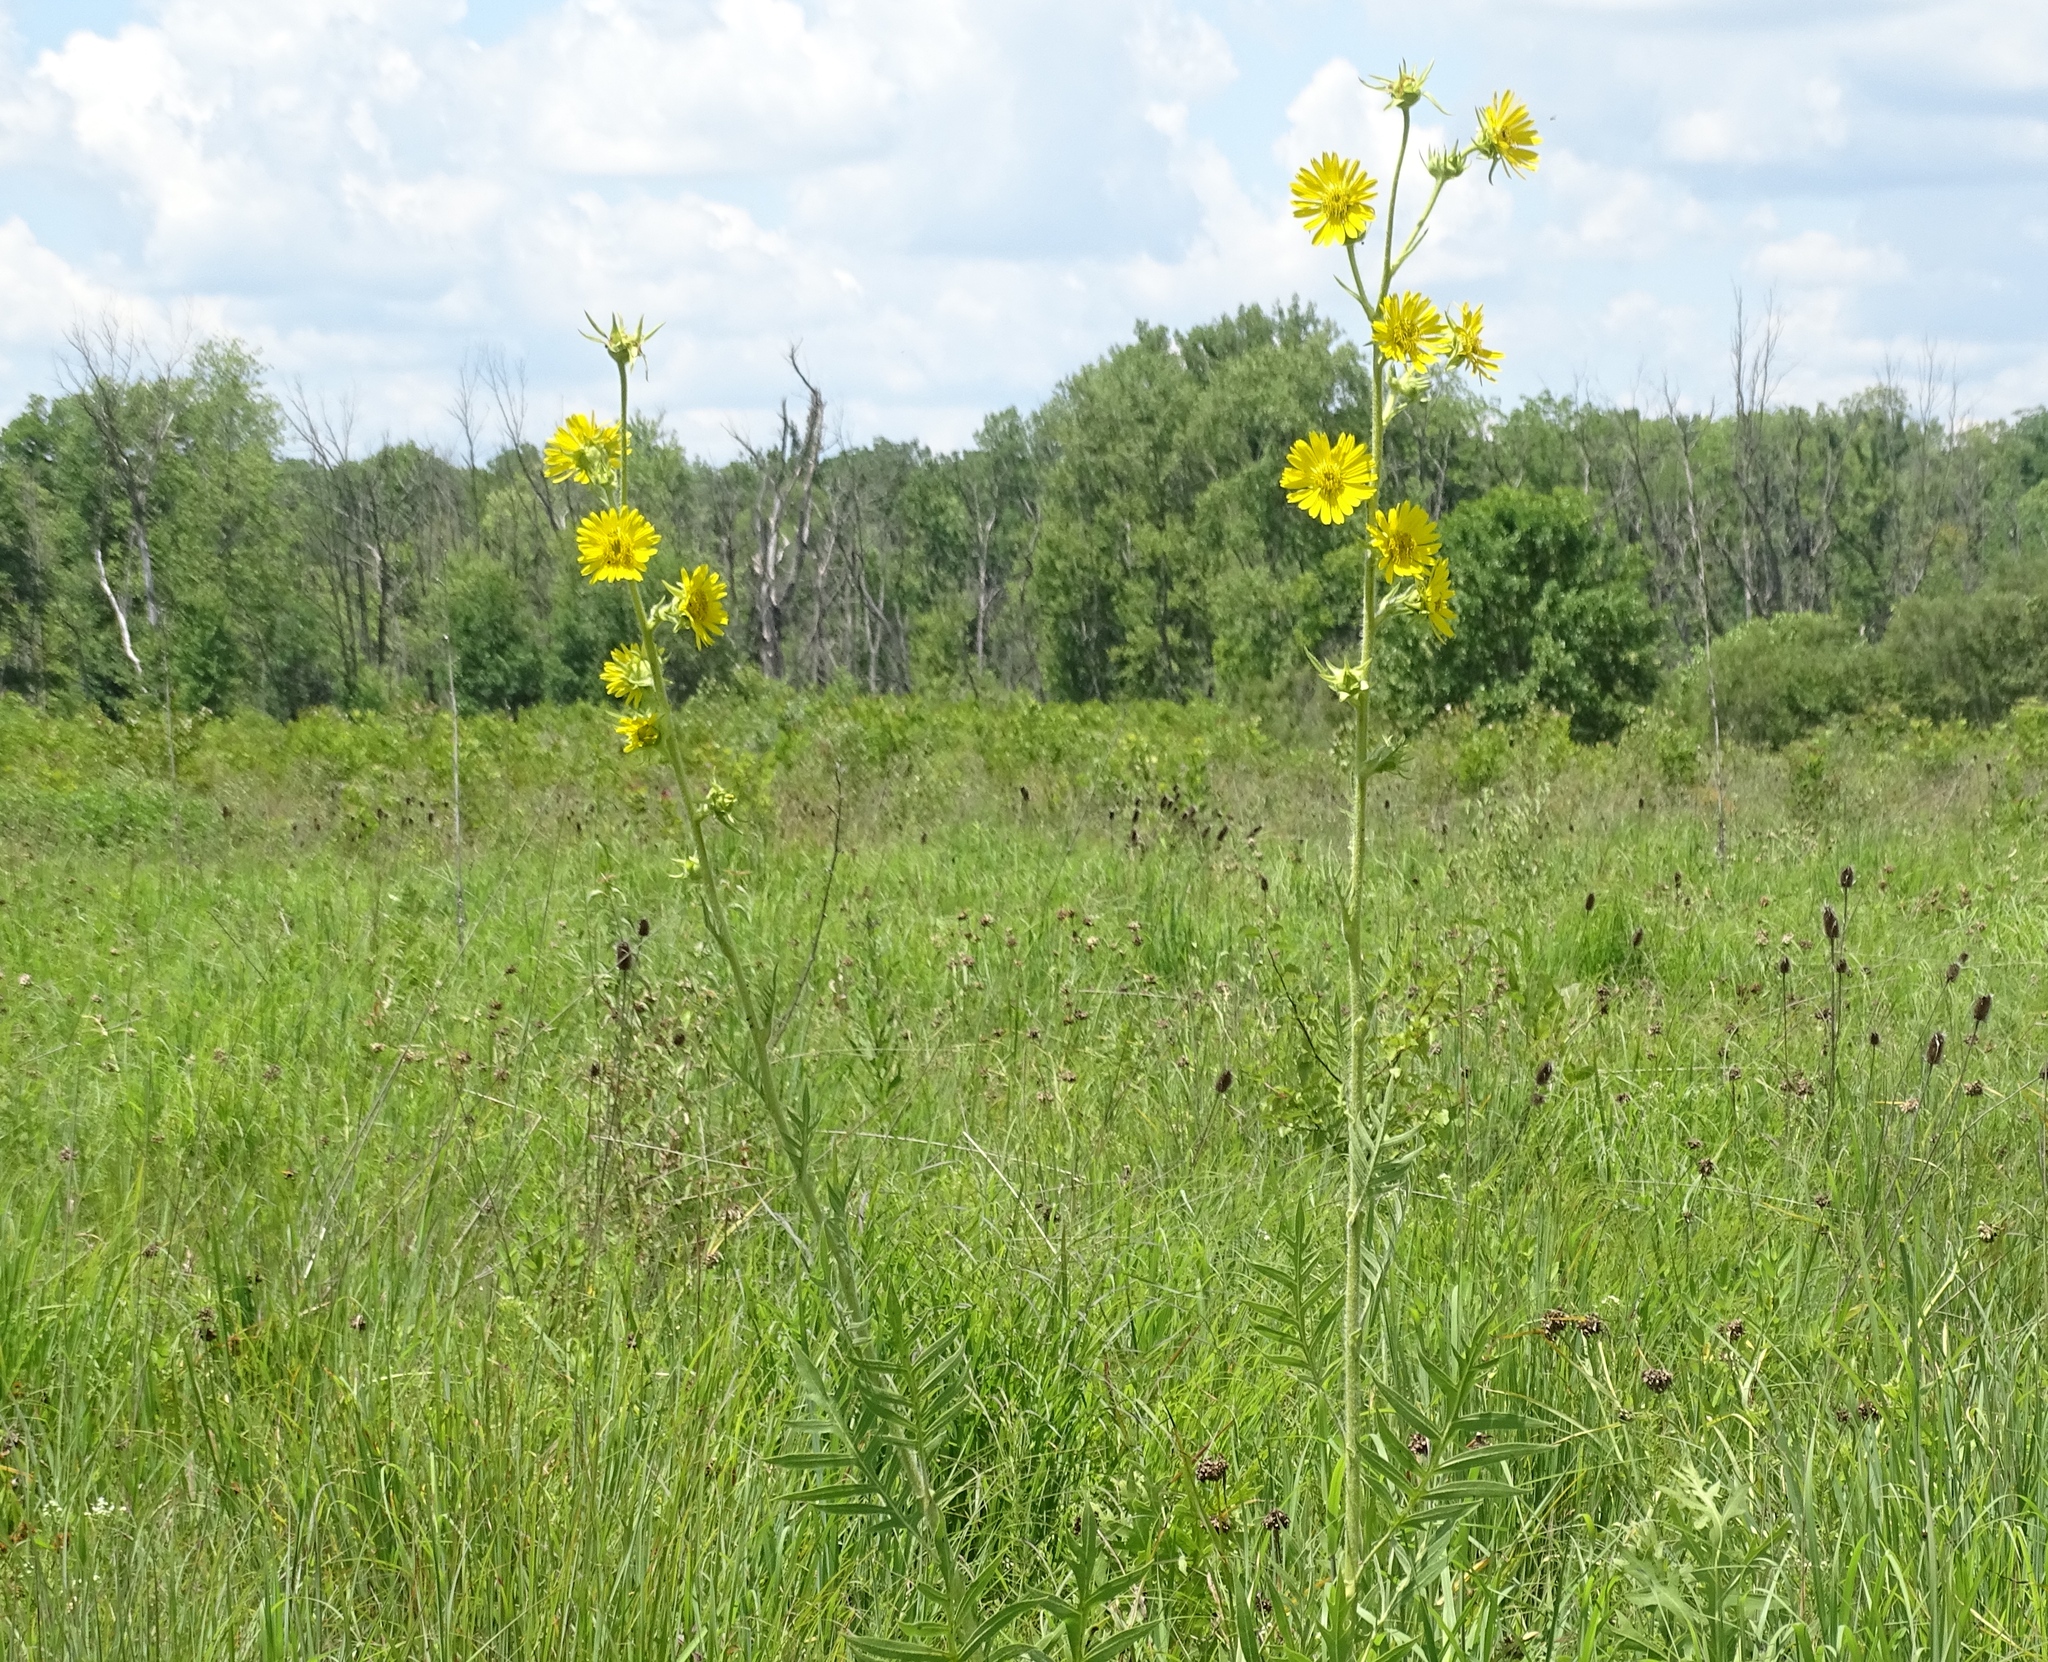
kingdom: Plantae
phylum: Tracheophyta
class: Magnoliopsida
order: Asterales
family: Asteraceae
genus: Silphium
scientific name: Silphium laciniatum
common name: Polarplant
